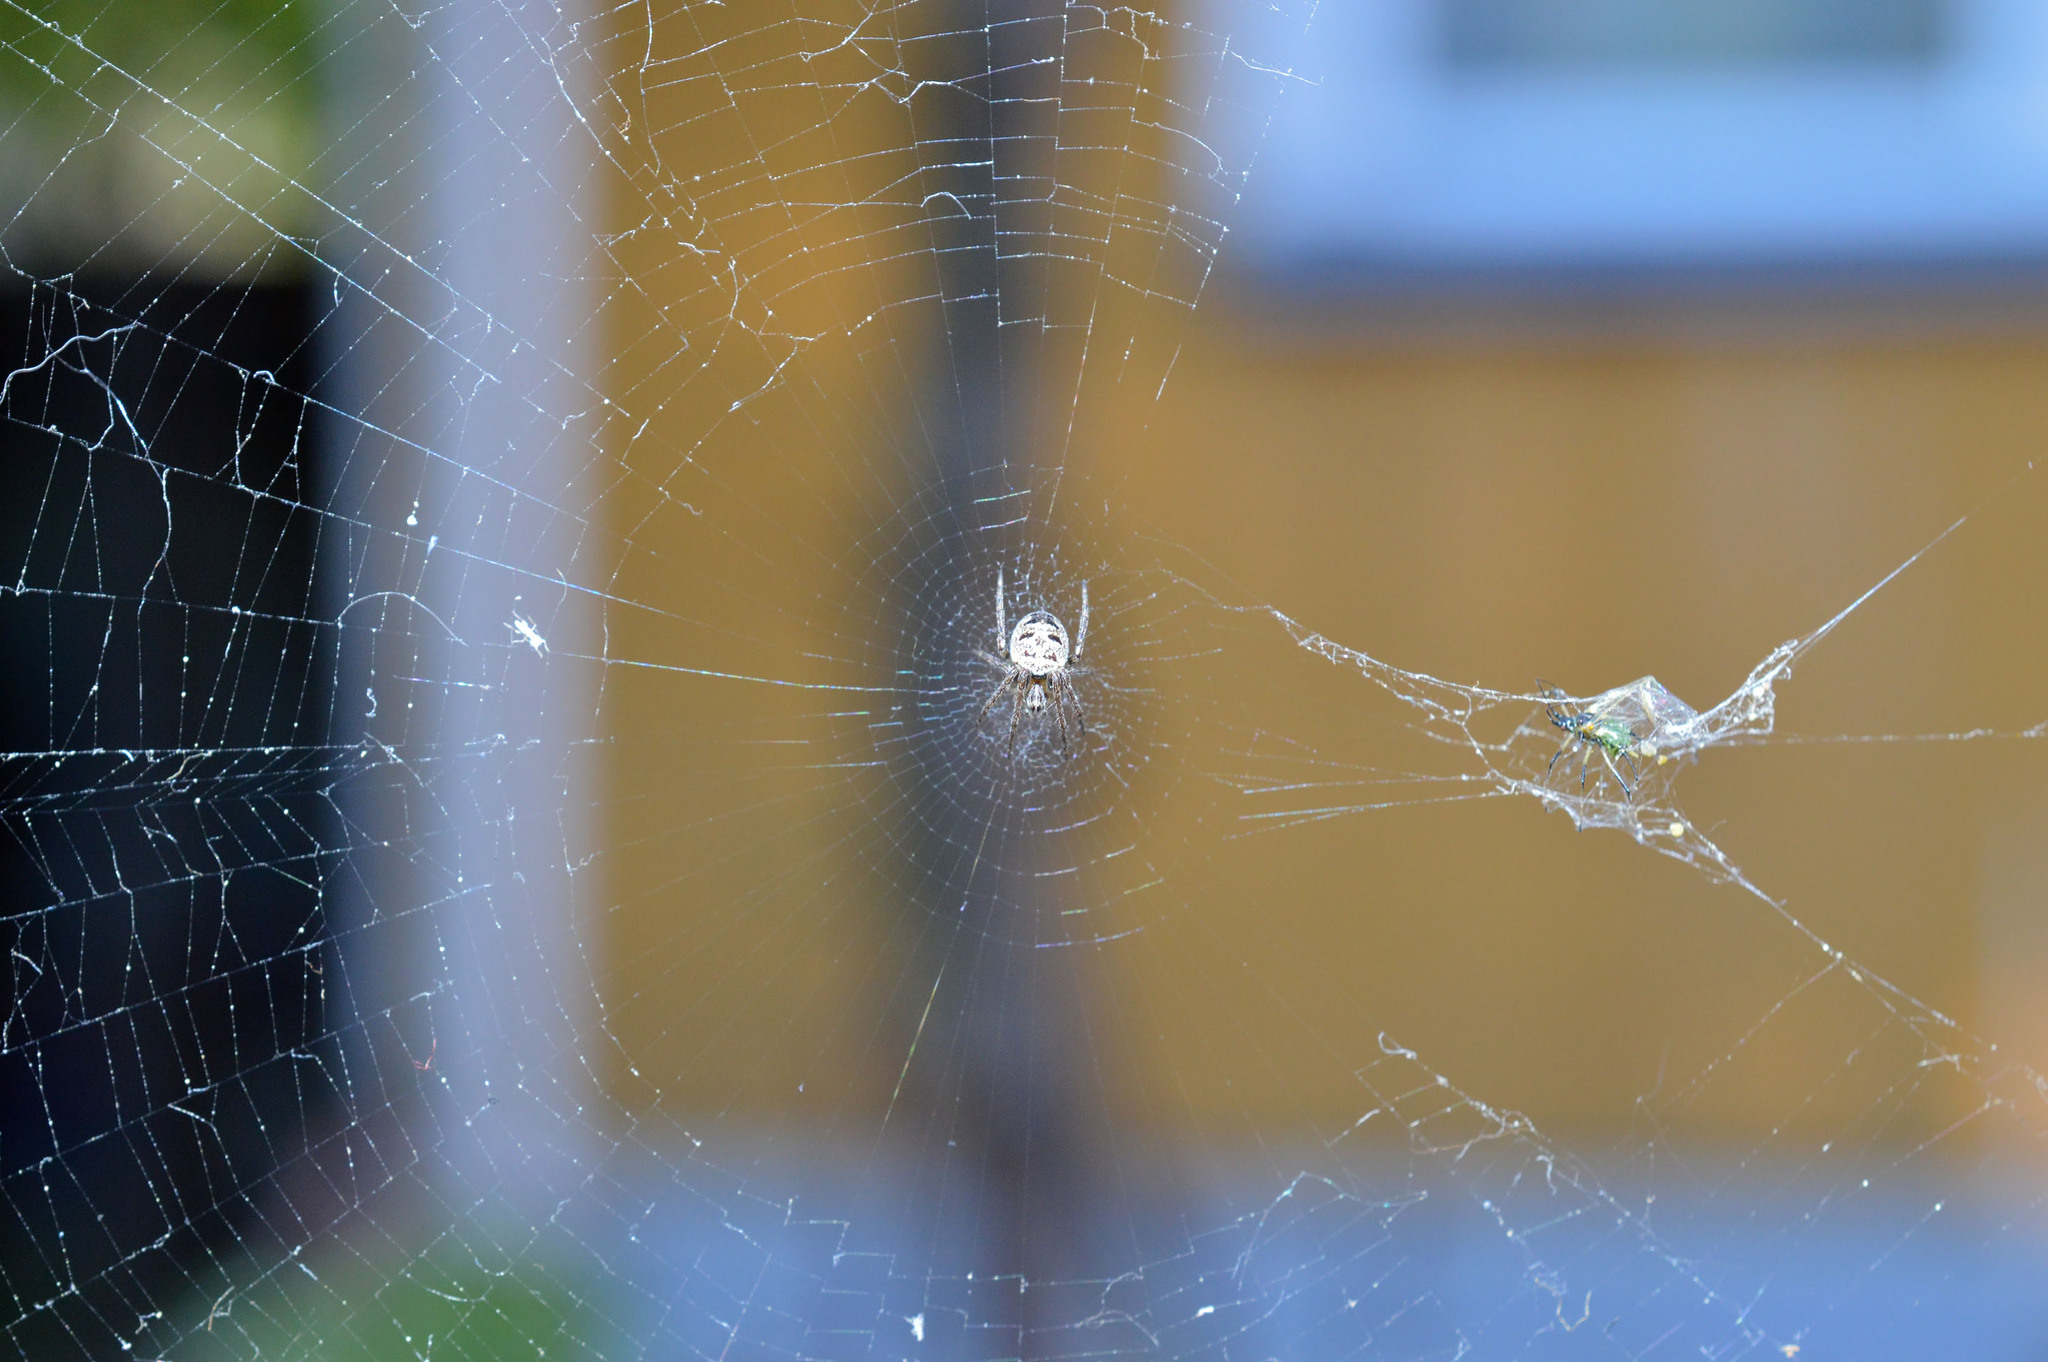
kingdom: Animalia
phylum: Arthropoda
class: Arachnida
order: Araneae
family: Araneidae
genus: Zilla
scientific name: Zilla diodia
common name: Zilla diodia
